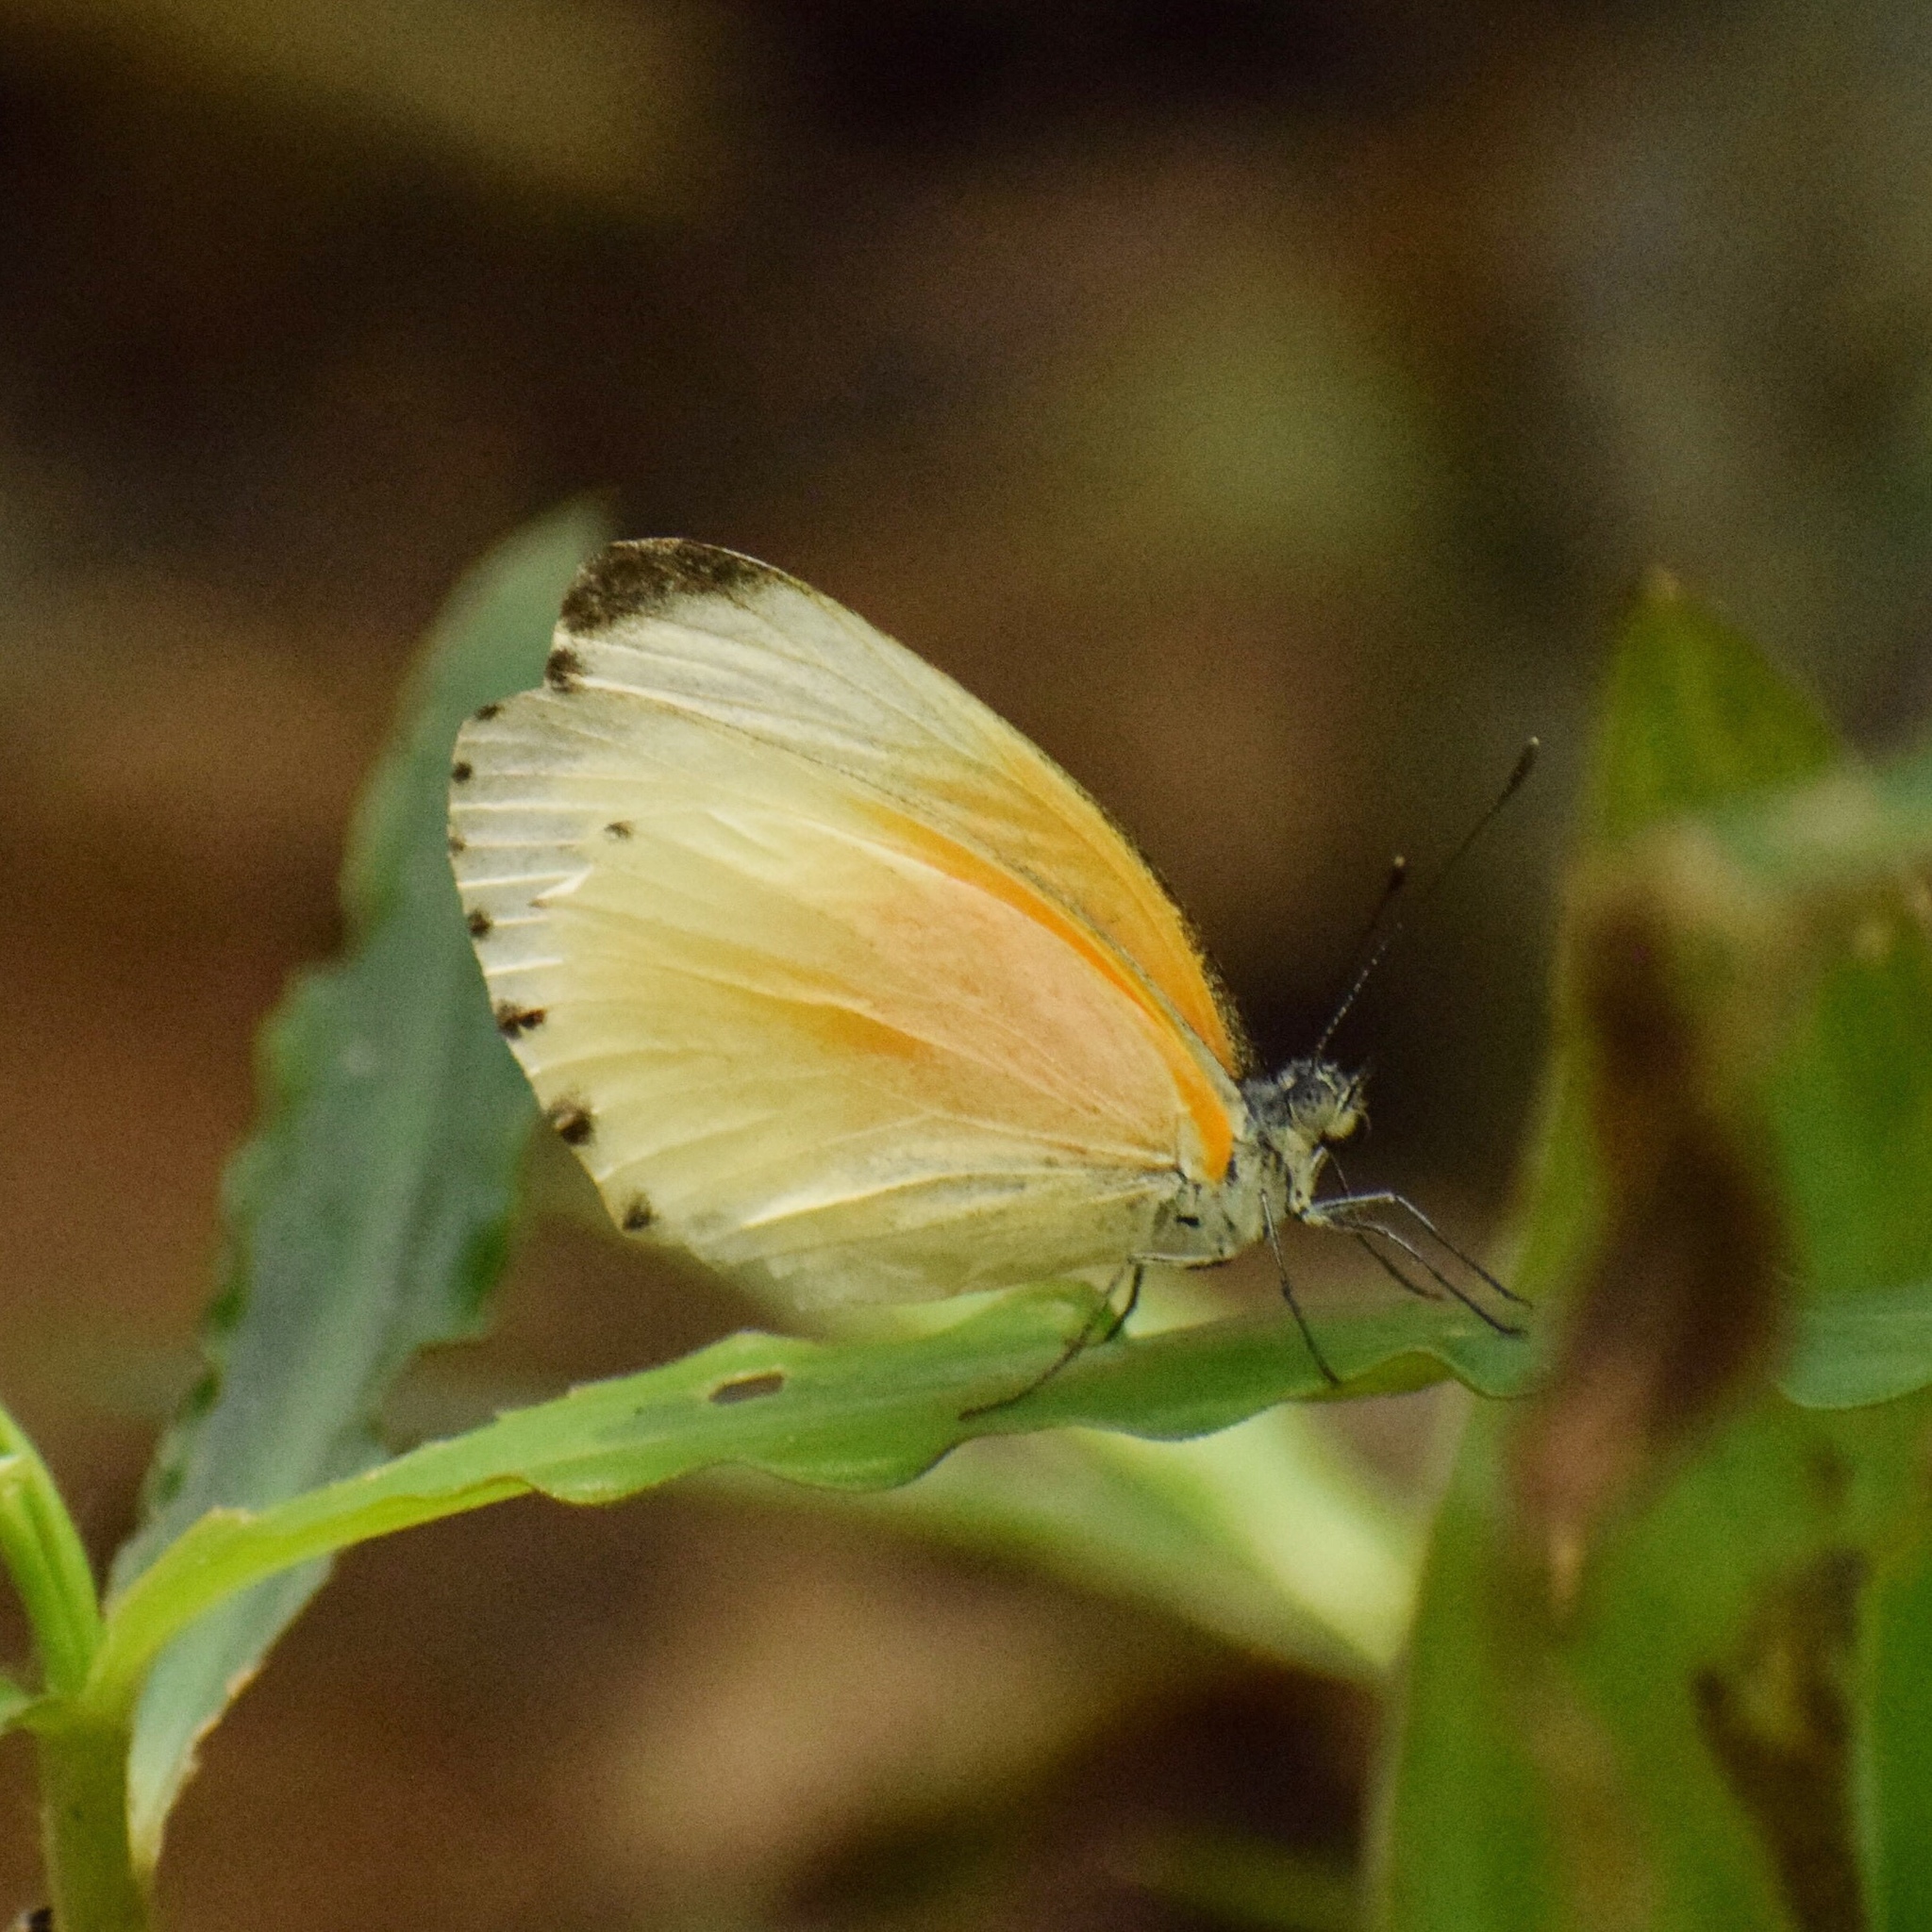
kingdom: Animalia
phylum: Arthropoda
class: Insecta
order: Lepidoptera
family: Pieridae
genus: Mylothris
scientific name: Mylothris rueppellii
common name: Twin dotted border
